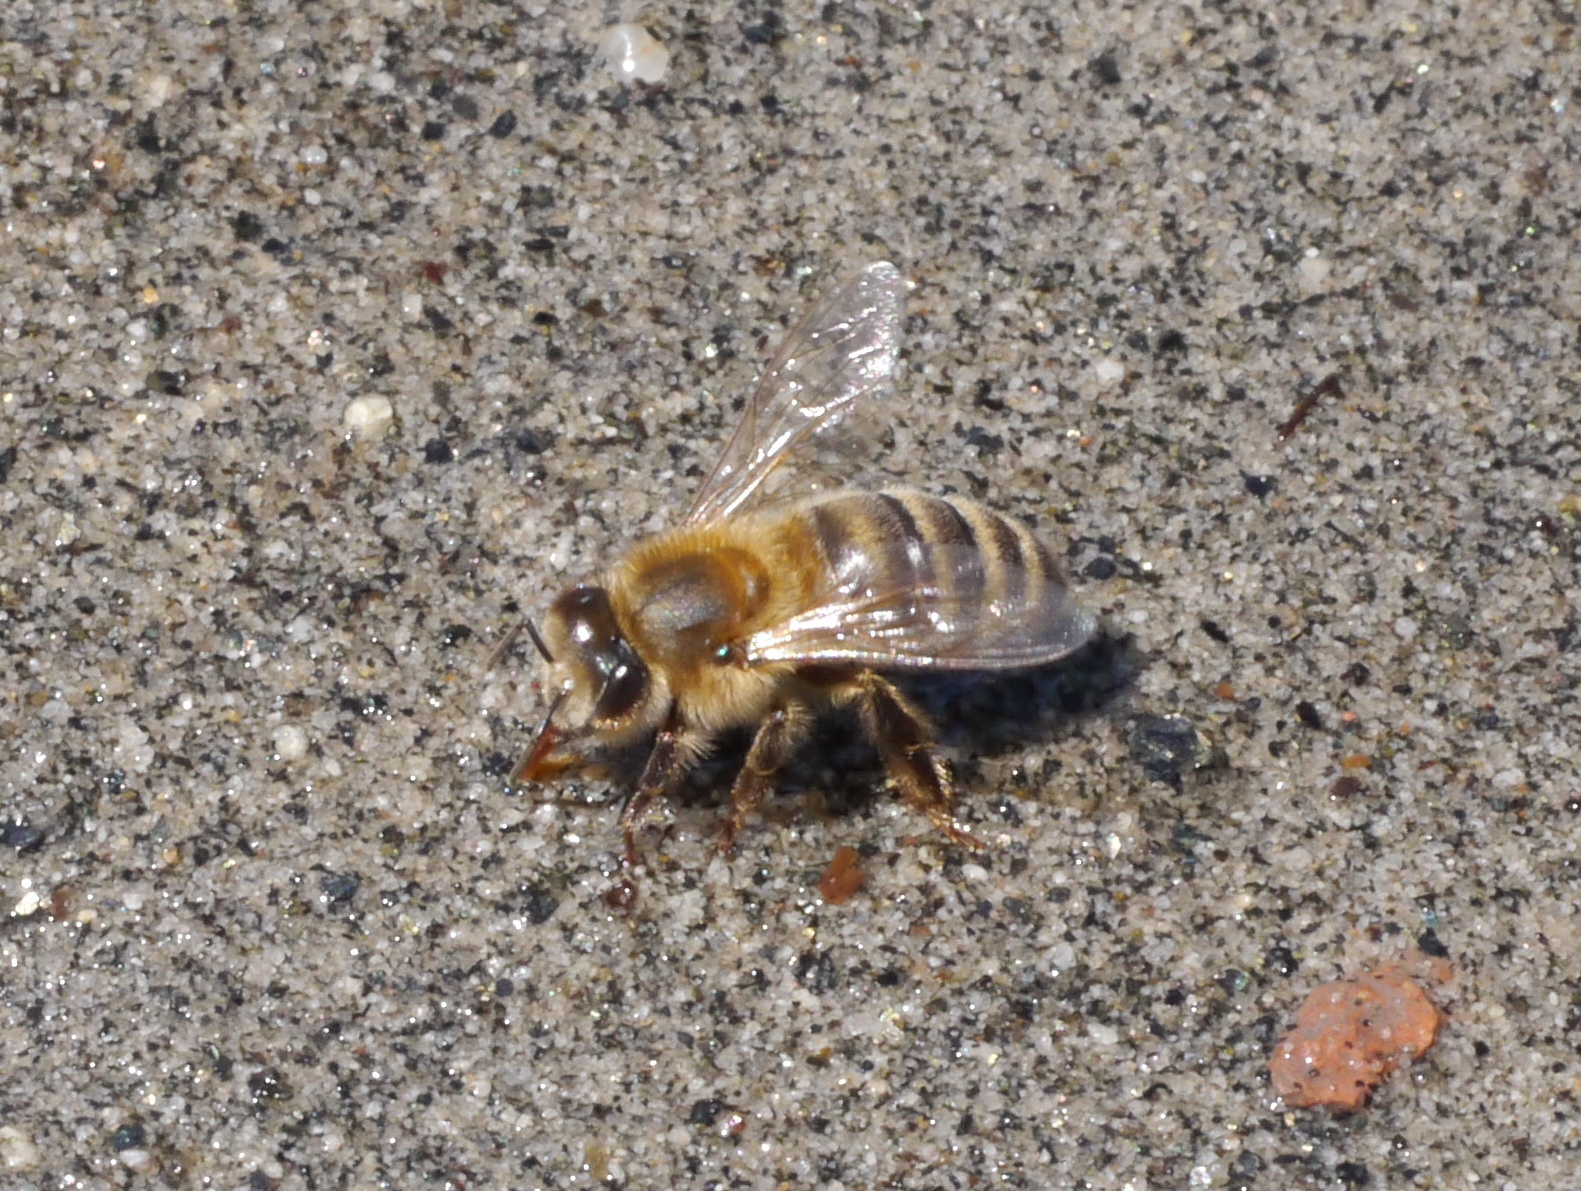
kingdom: Animalia
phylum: Arthropoda
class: Insecta
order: Hymenoptera
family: Apidae
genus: Apis
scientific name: Apis mellifera
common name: Honey bee
